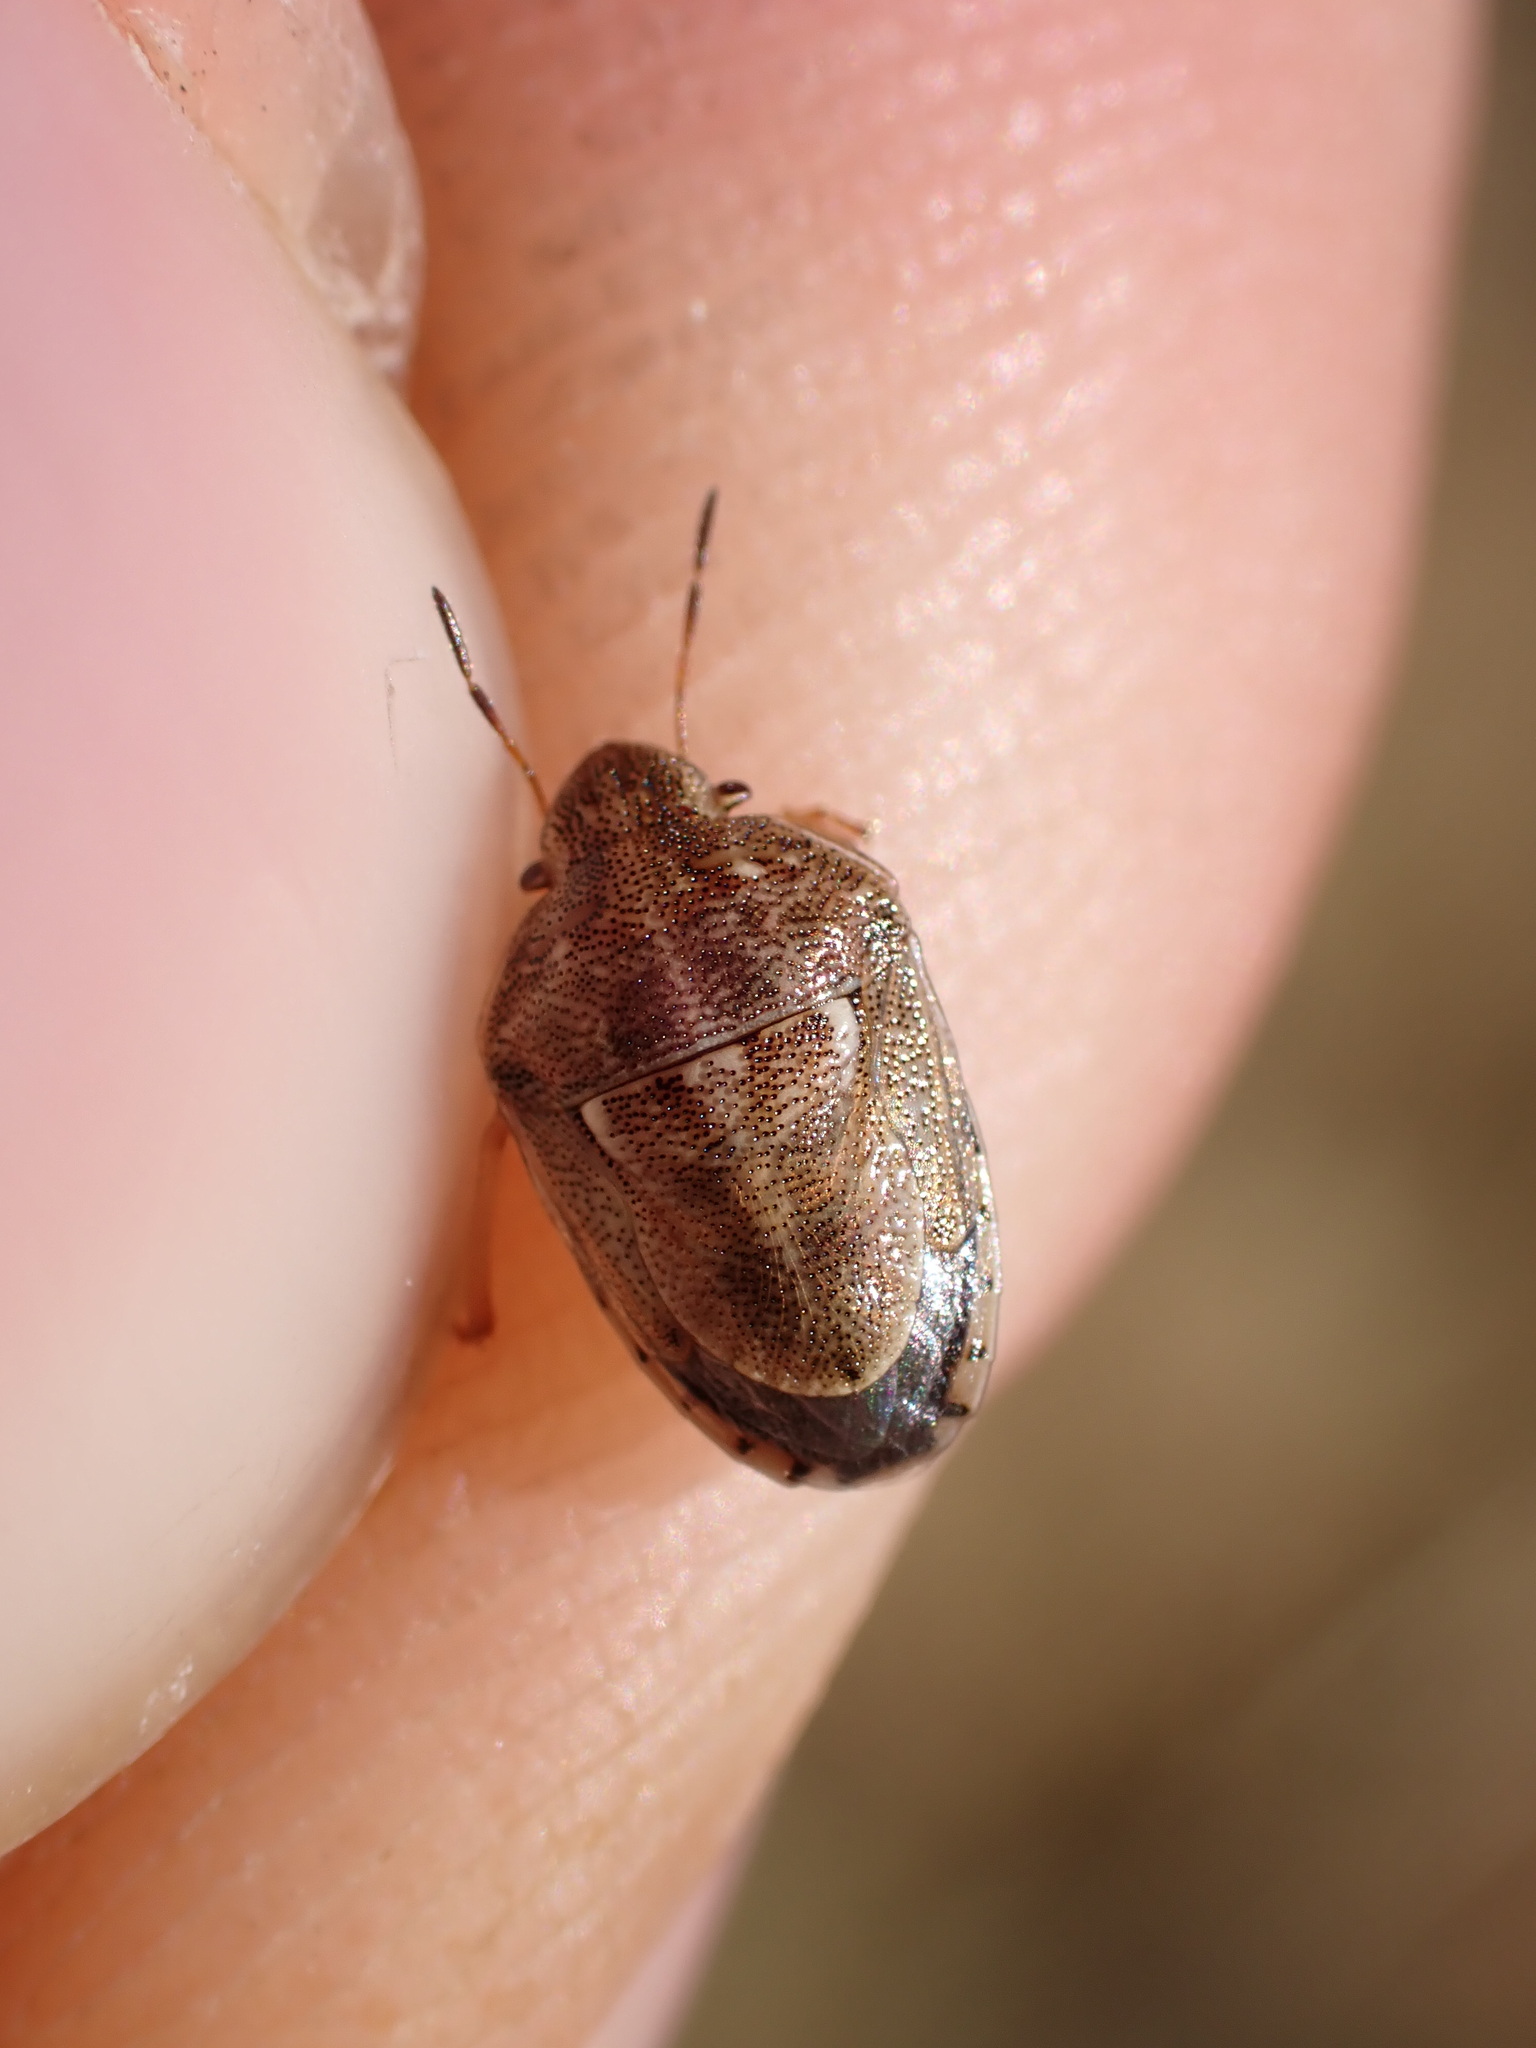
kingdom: Animalia
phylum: Arthropoda
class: Insecta
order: Hemiptera
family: Pentatomidae
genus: Neottiglossa
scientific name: Neottiglossa leporina
